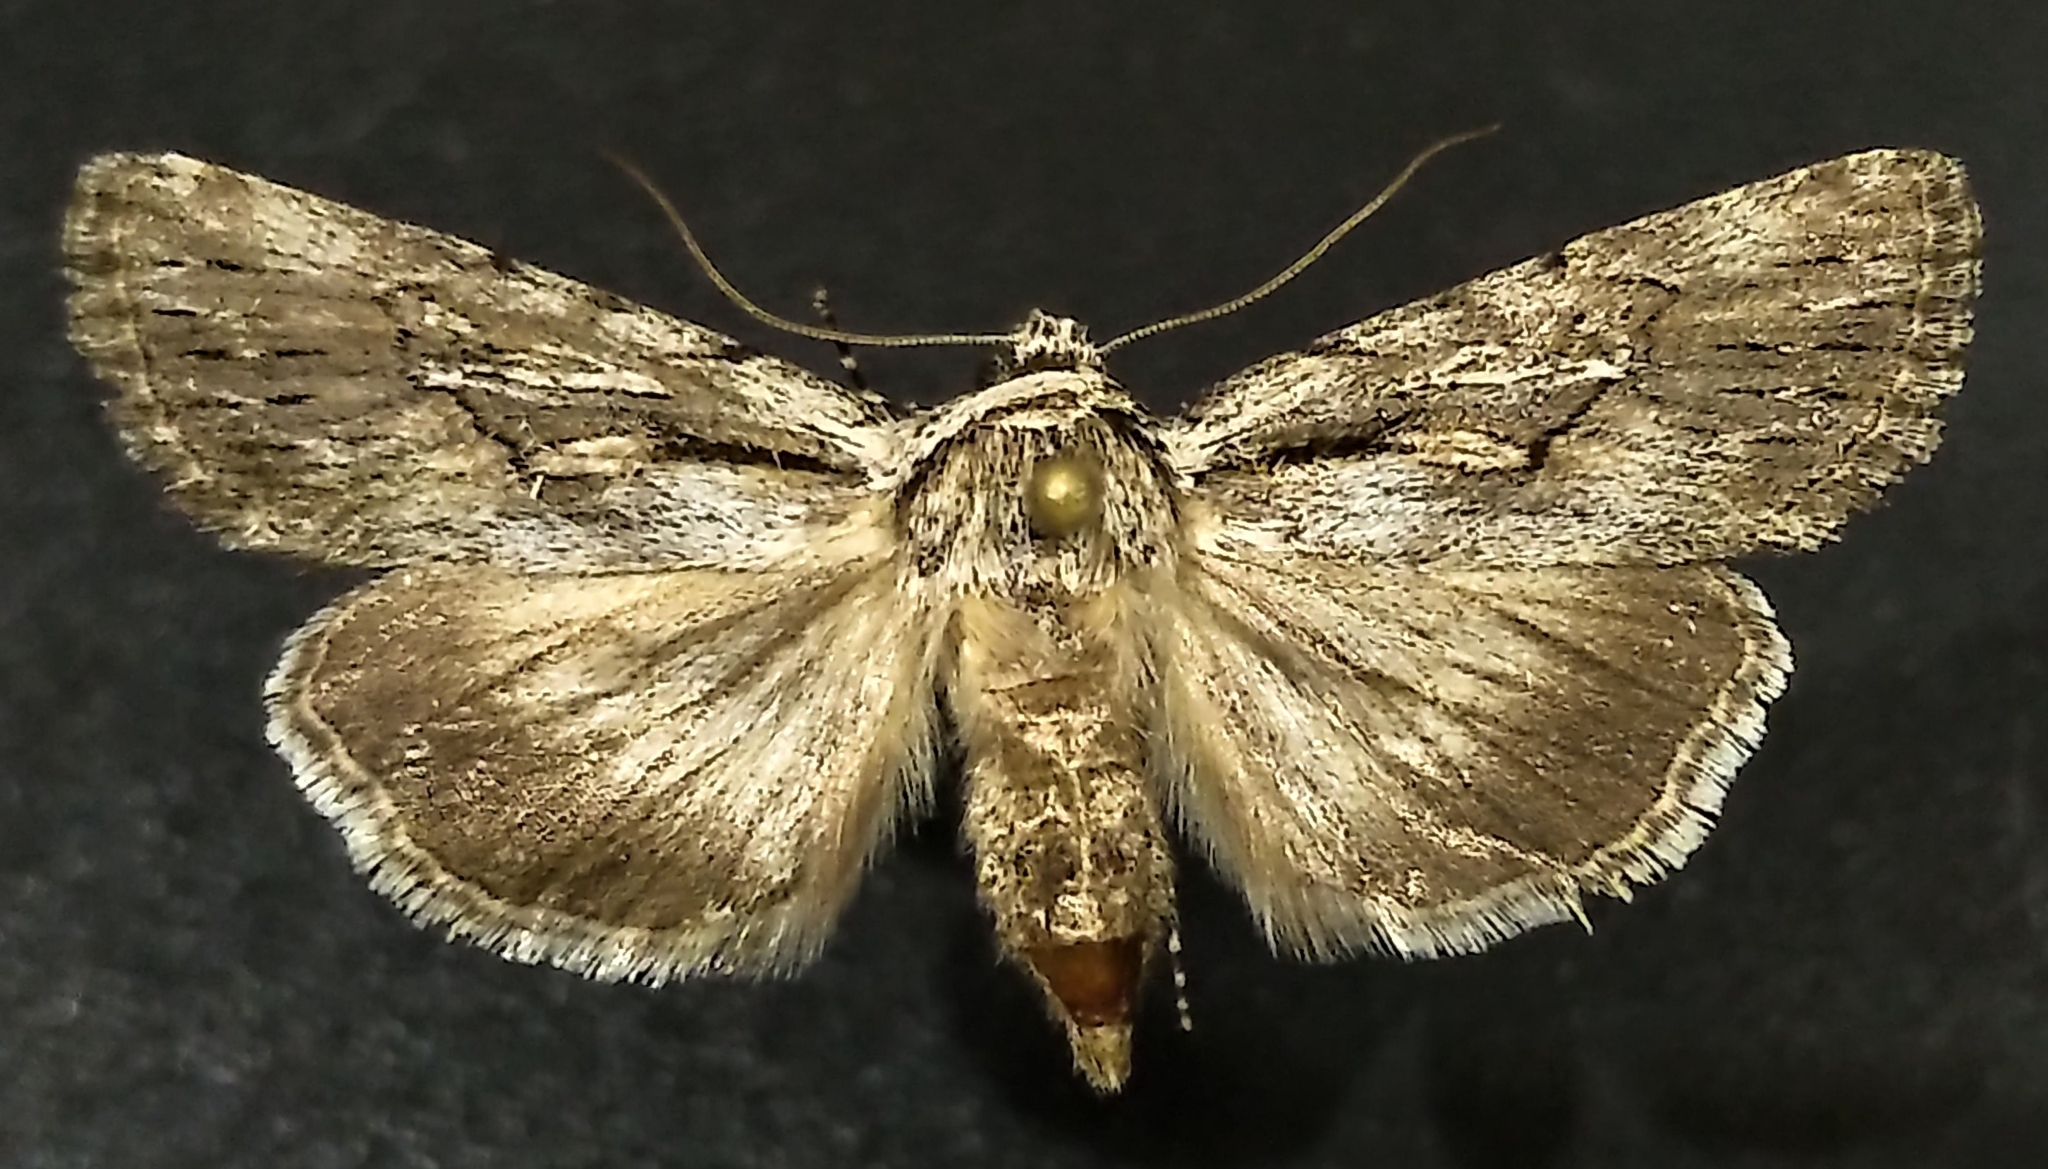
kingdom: Animalia
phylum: Arthropoda
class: Insecta
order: Lepidoptera
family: Noctuidae
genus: Sympistis
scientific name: Sympistis mackiei
